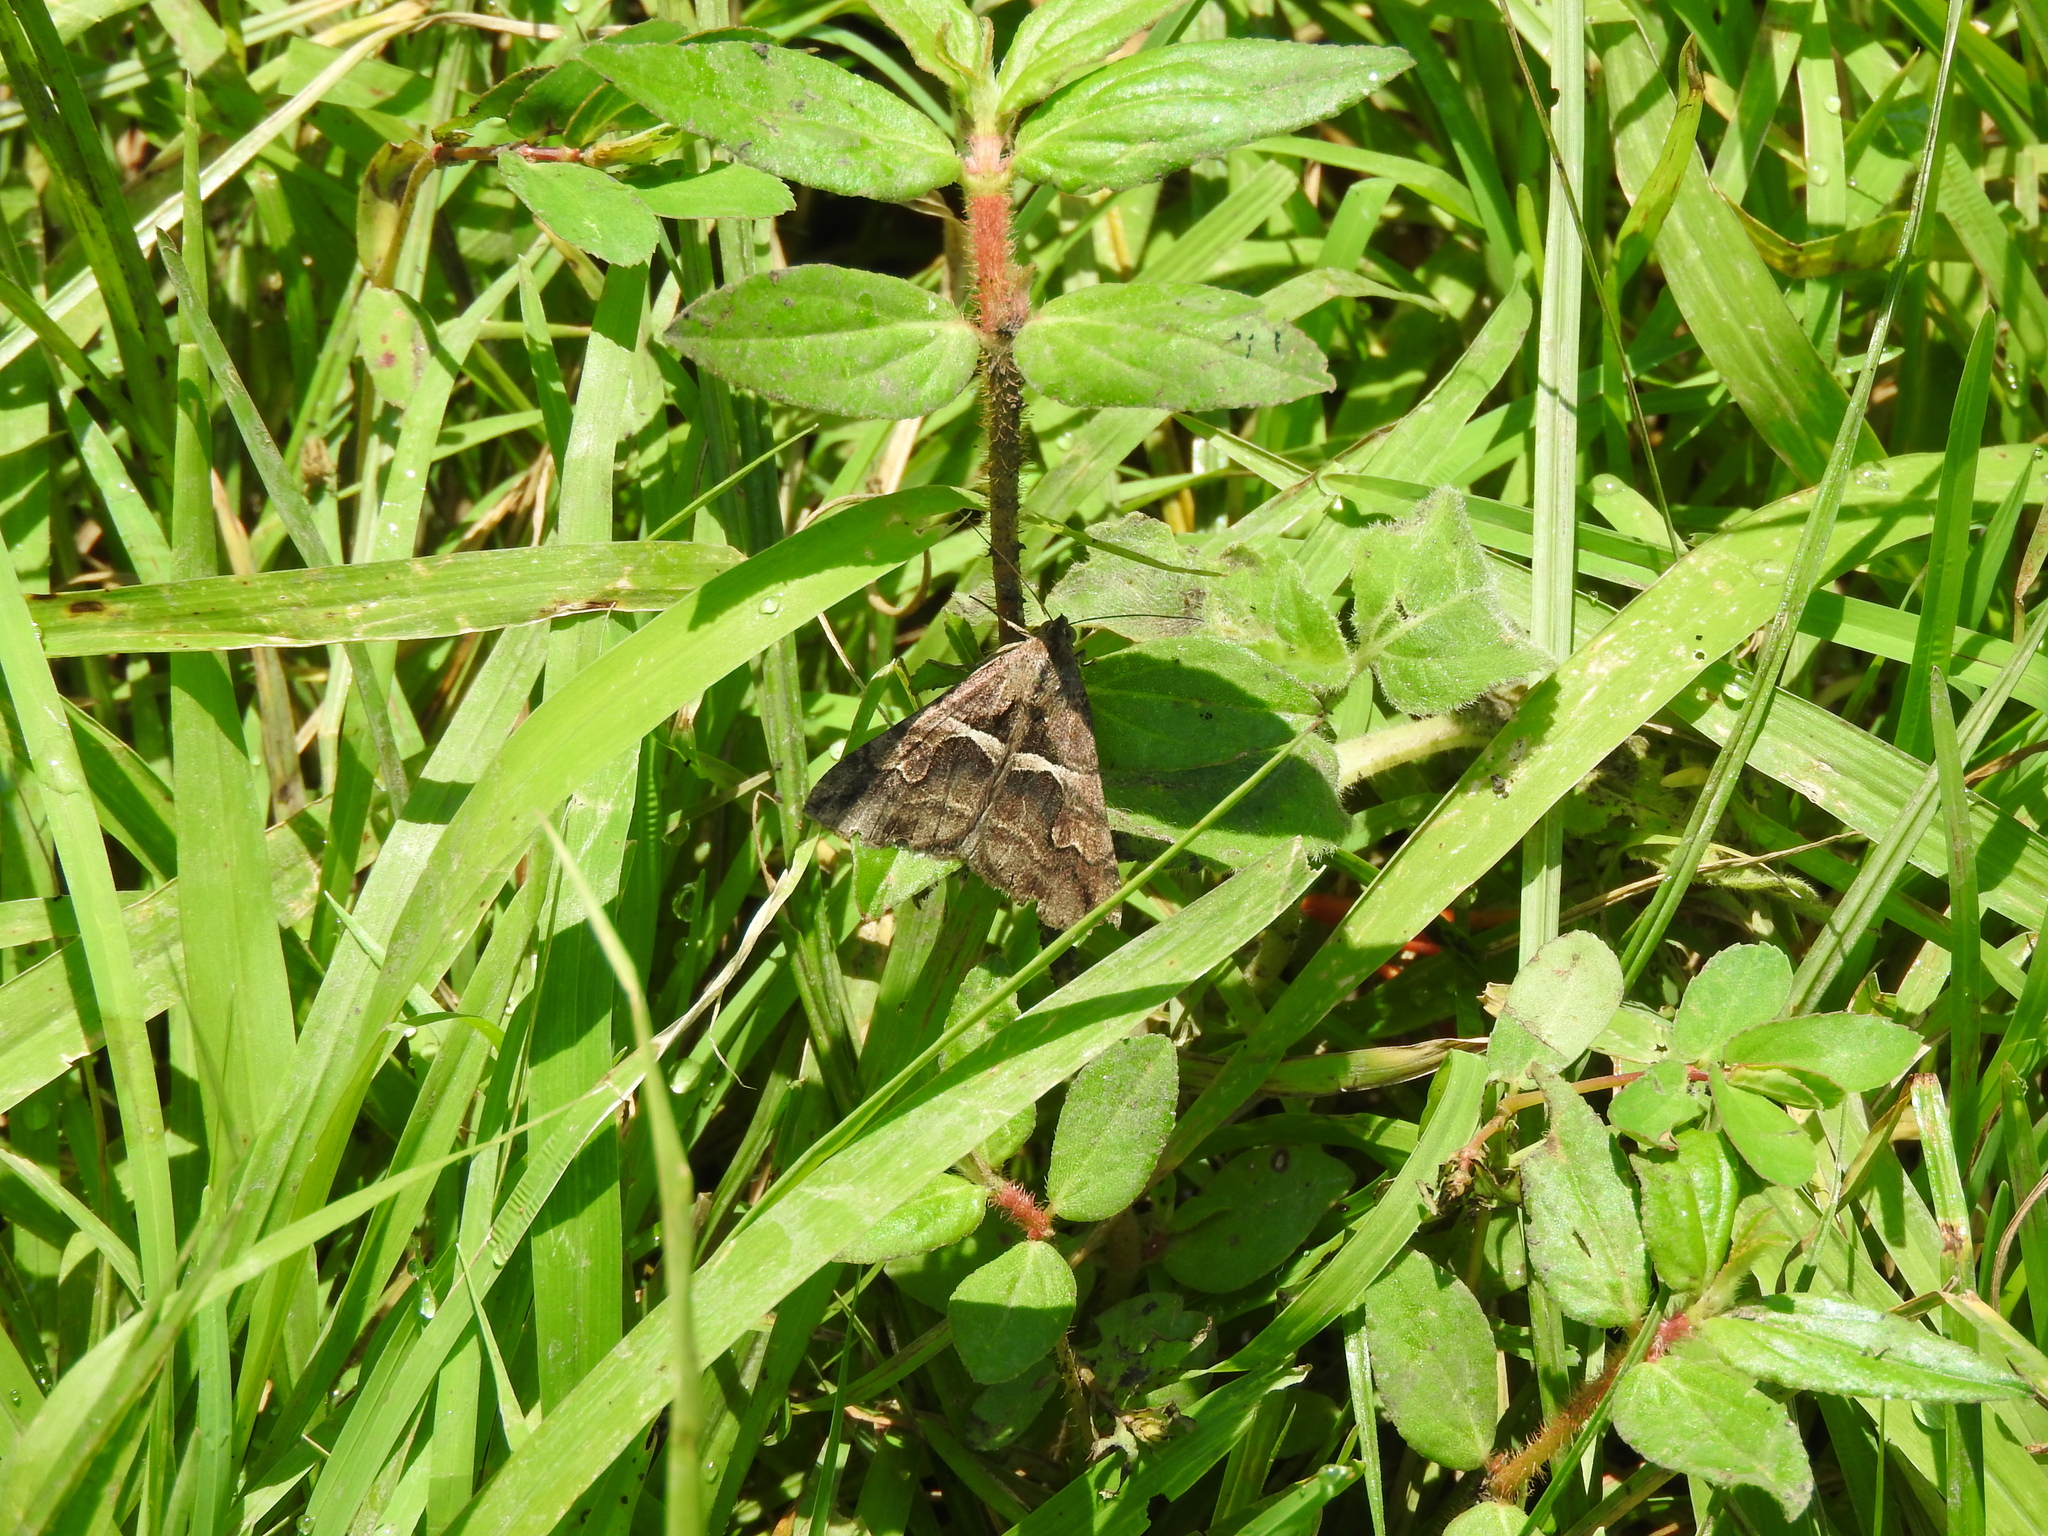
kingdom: Animalia
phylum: Arthropoda
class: Insecta
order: Lepidoptera
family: Erebidae
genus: Melipotis
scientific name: Melipotis cellaris
